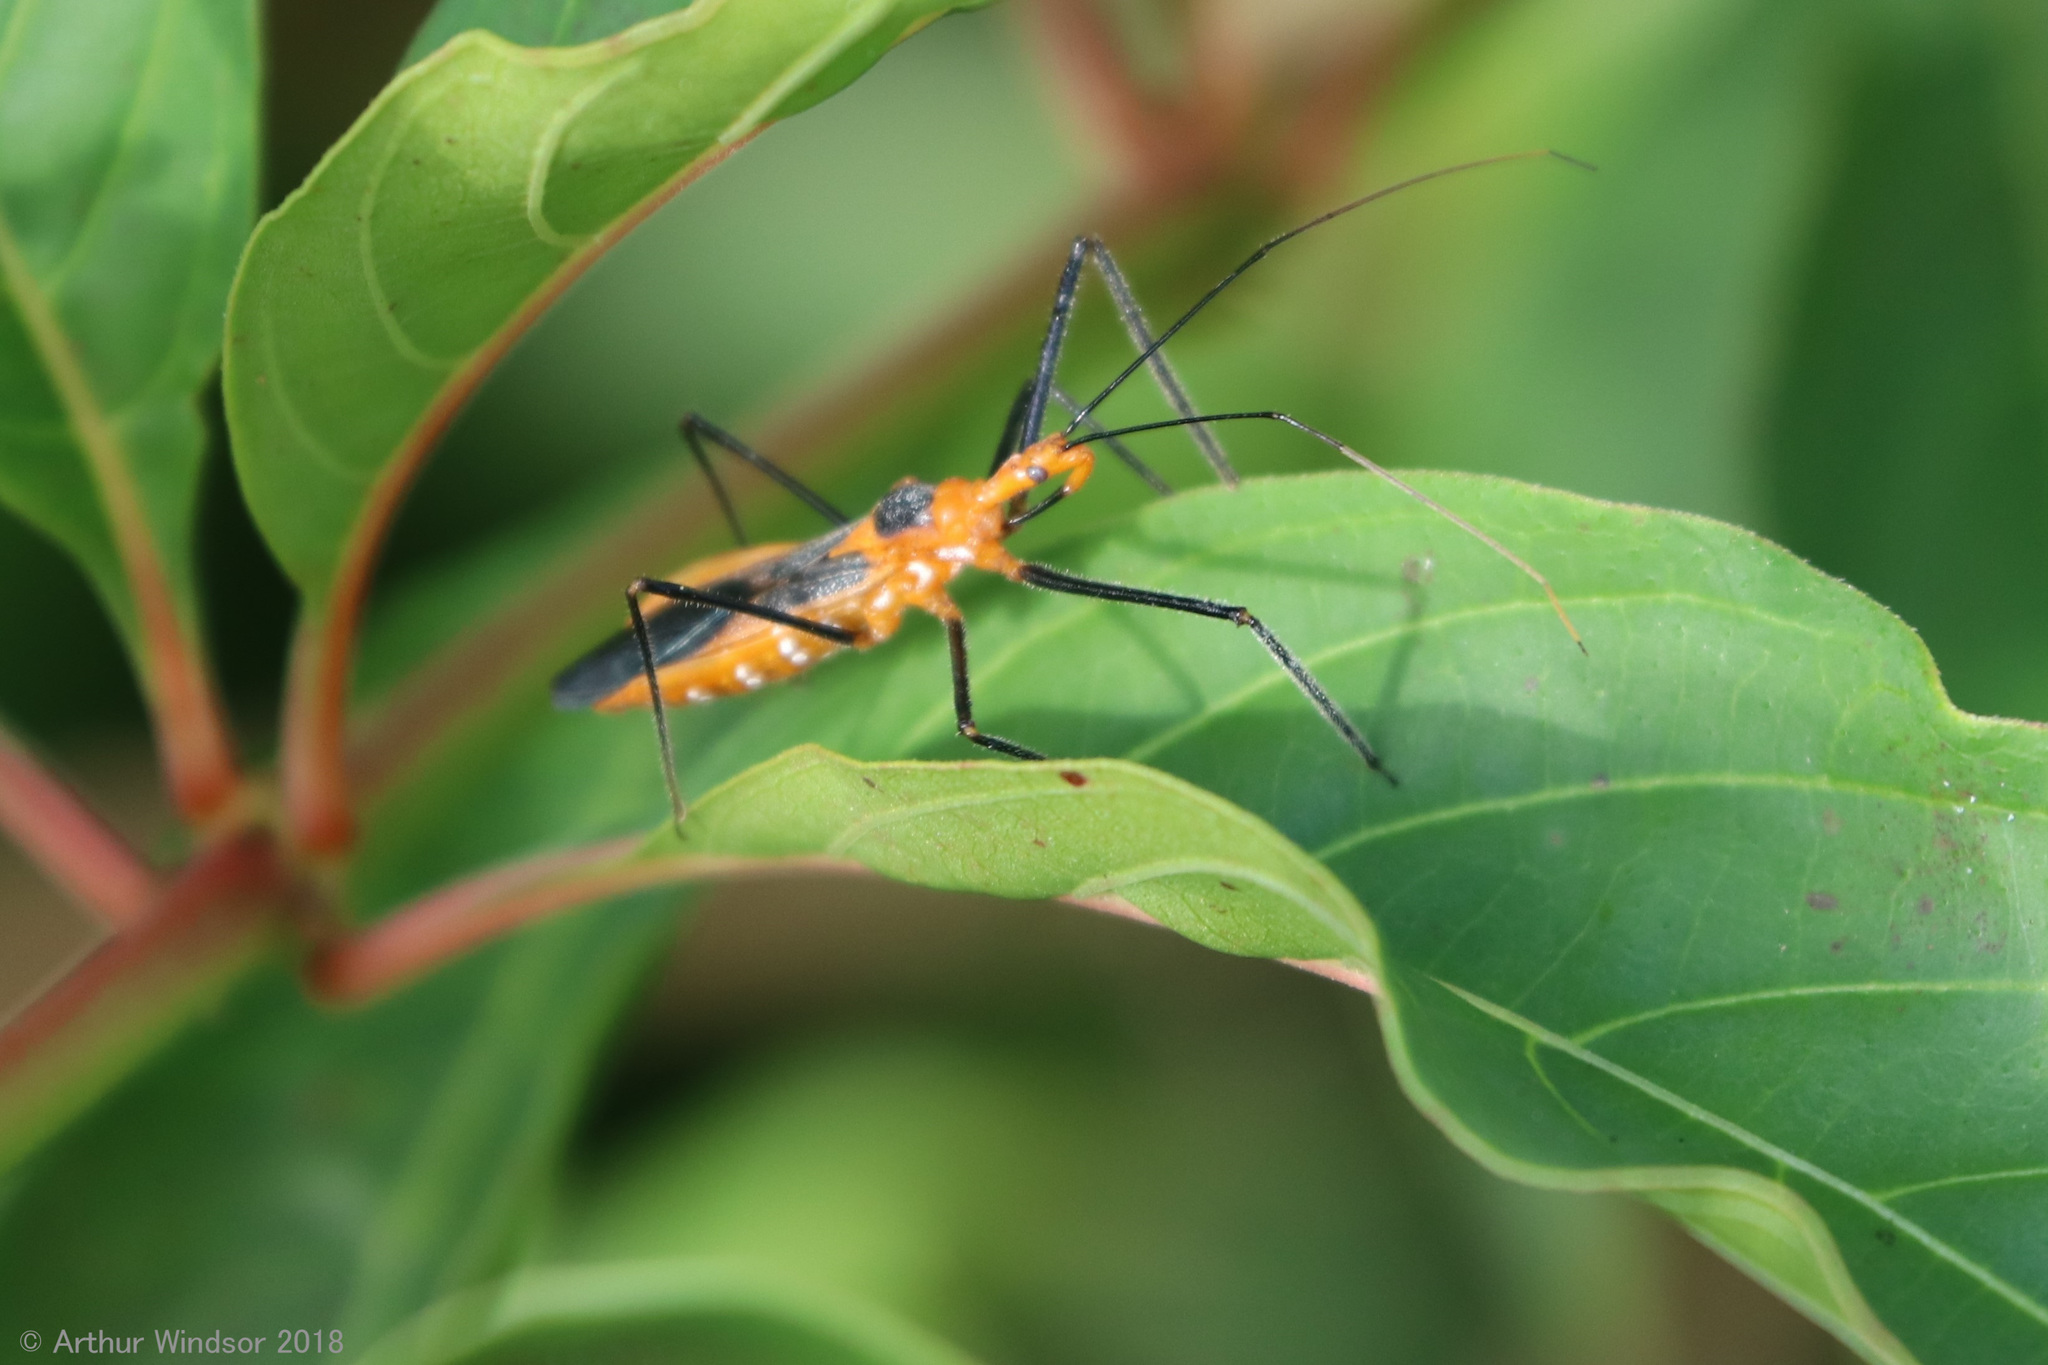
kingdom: Animalia
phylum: Arthropoda
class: Insecta
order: Hemiptera
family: Reduviidae
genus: Zelus
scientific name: Zelus longipes
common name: Milkweed assassin bug
